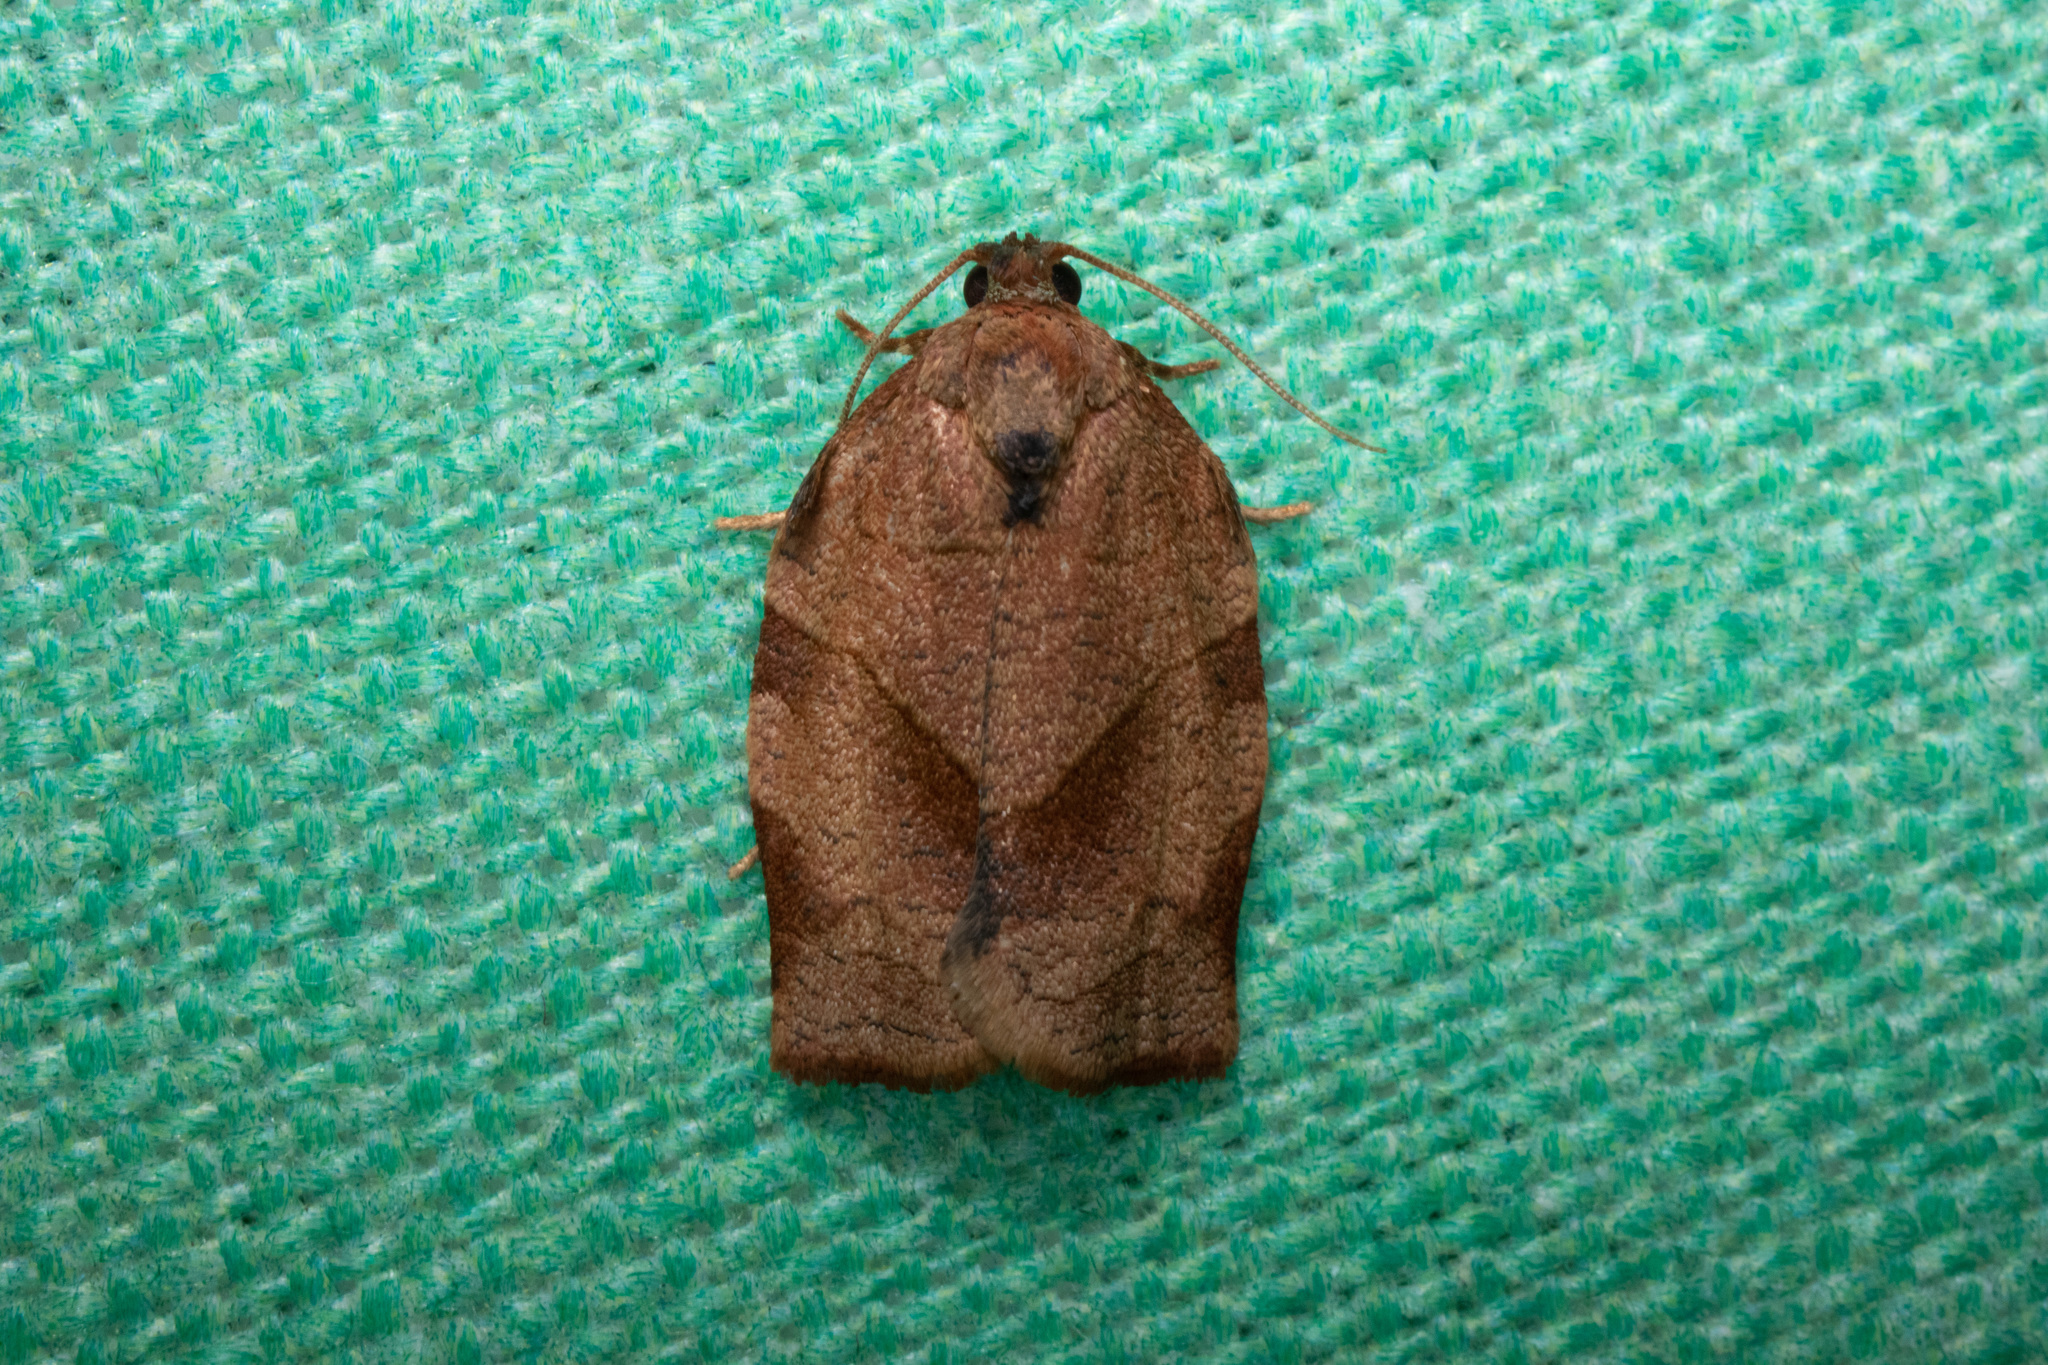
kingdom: Animalia
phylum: Arthropoda
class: Insecta
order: Lepidoptera
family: Tortricidae
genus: Choristoneura
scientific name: Choristoneura rosaceana
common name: Oblique-banded leafroller moth
